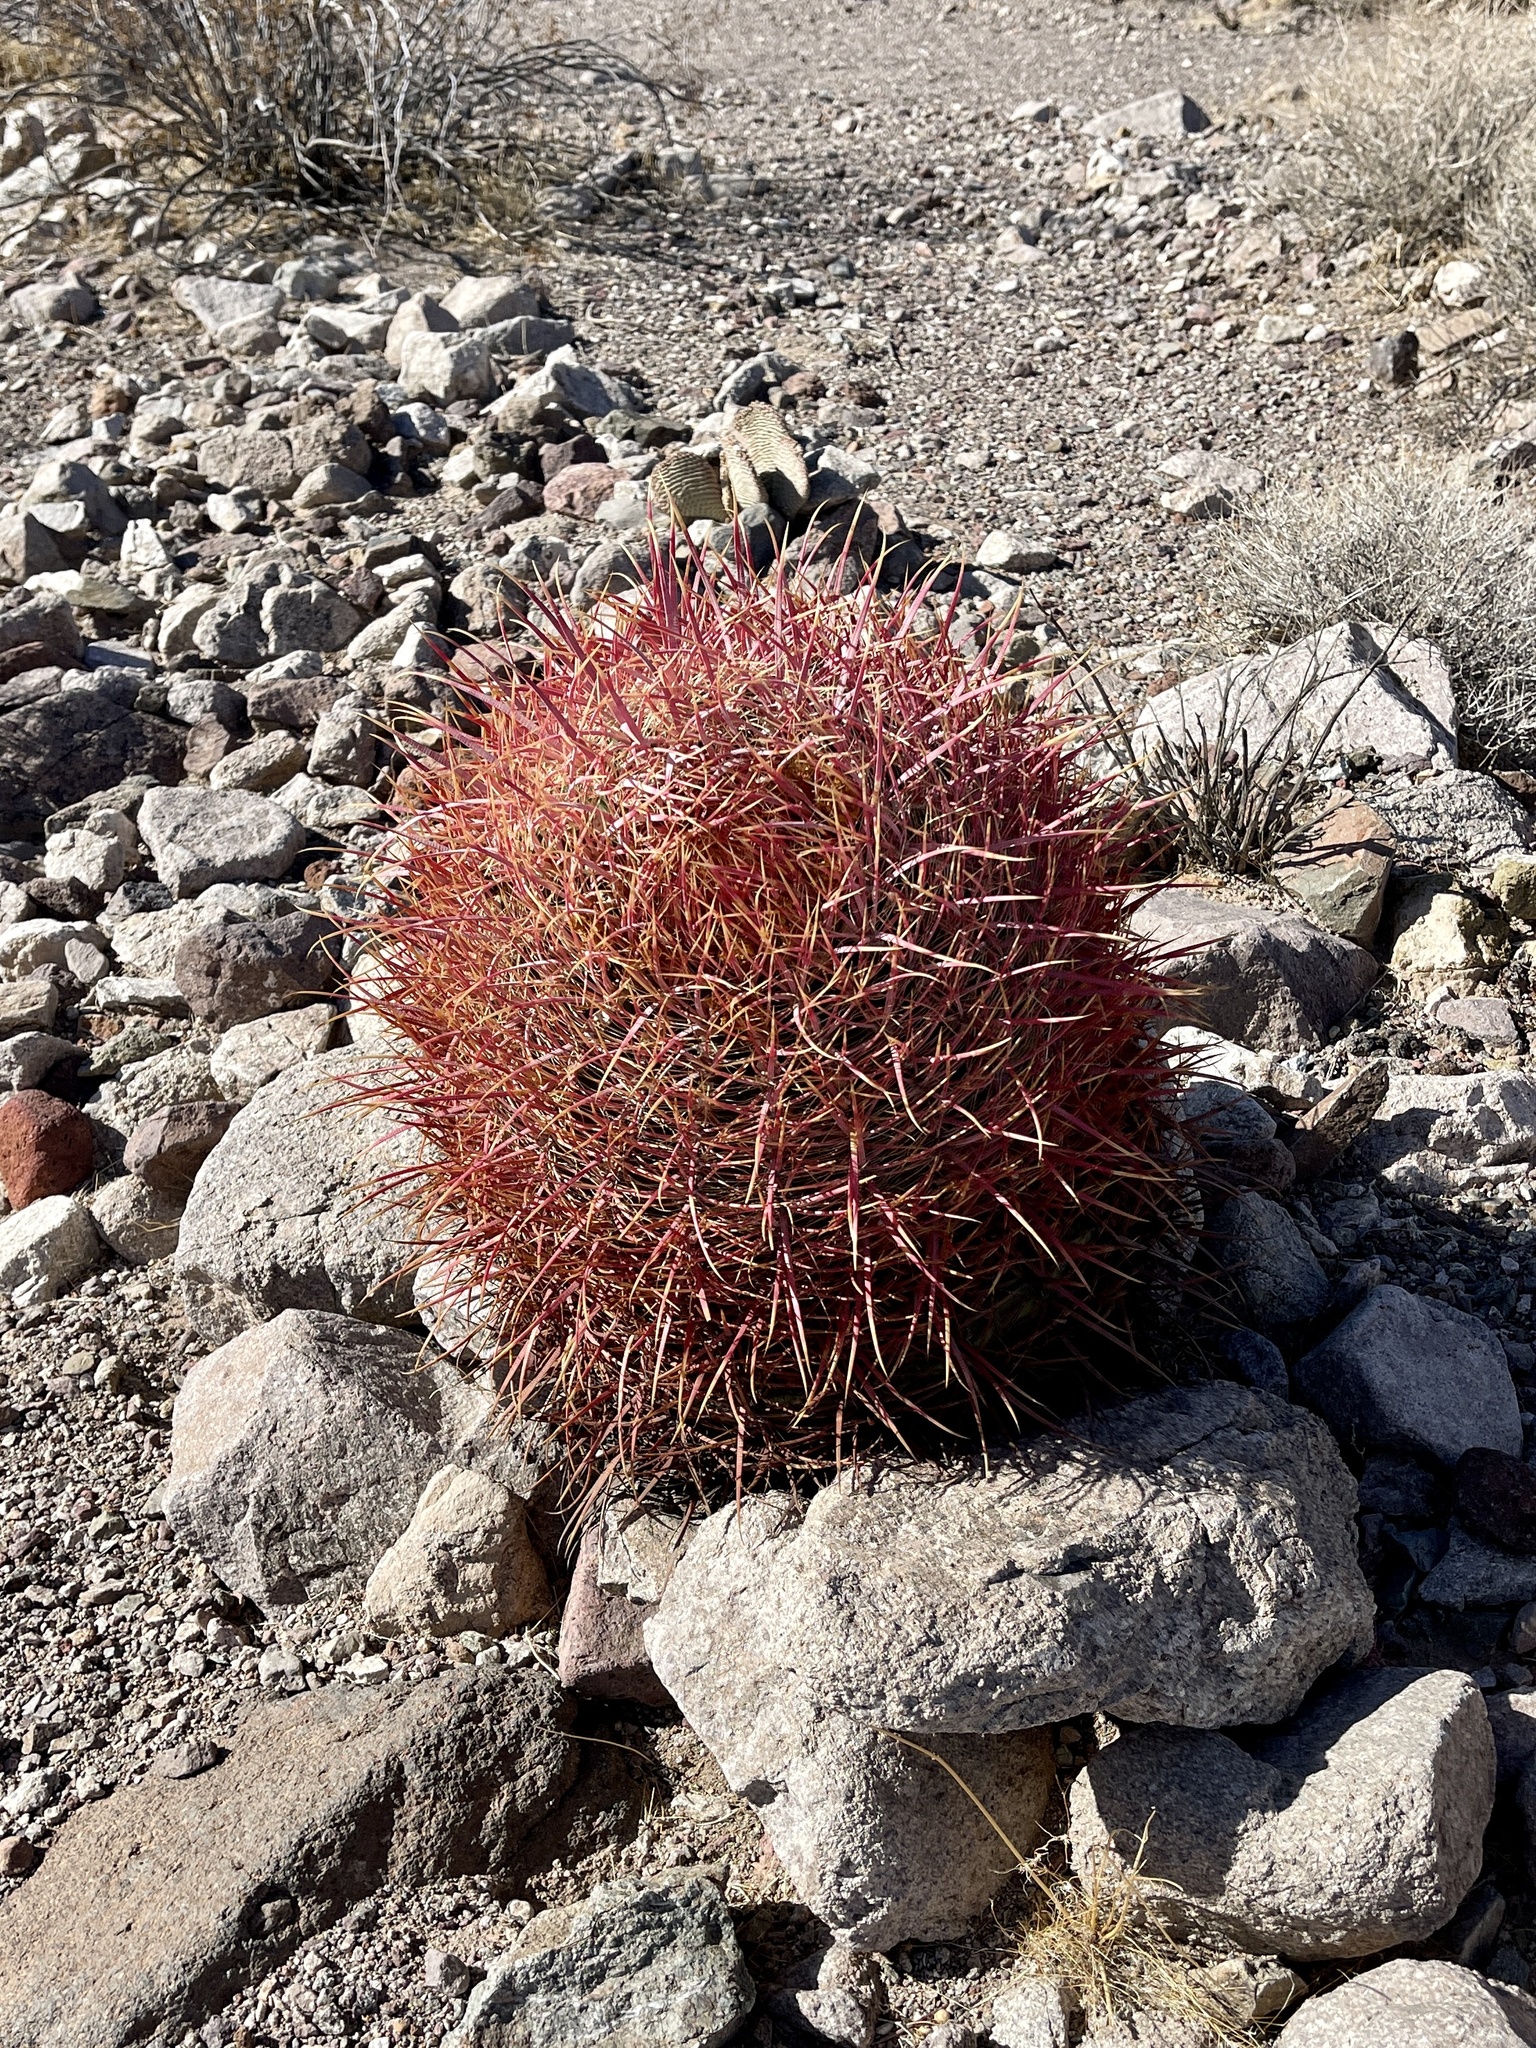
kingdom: Plantae
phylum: Tracheophyta
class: Magnoliopsida
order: Caryophyllales
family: Cactaceae
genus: Ferocactus
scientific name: Ferocactus cylindraceus
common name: California barrel cactus
